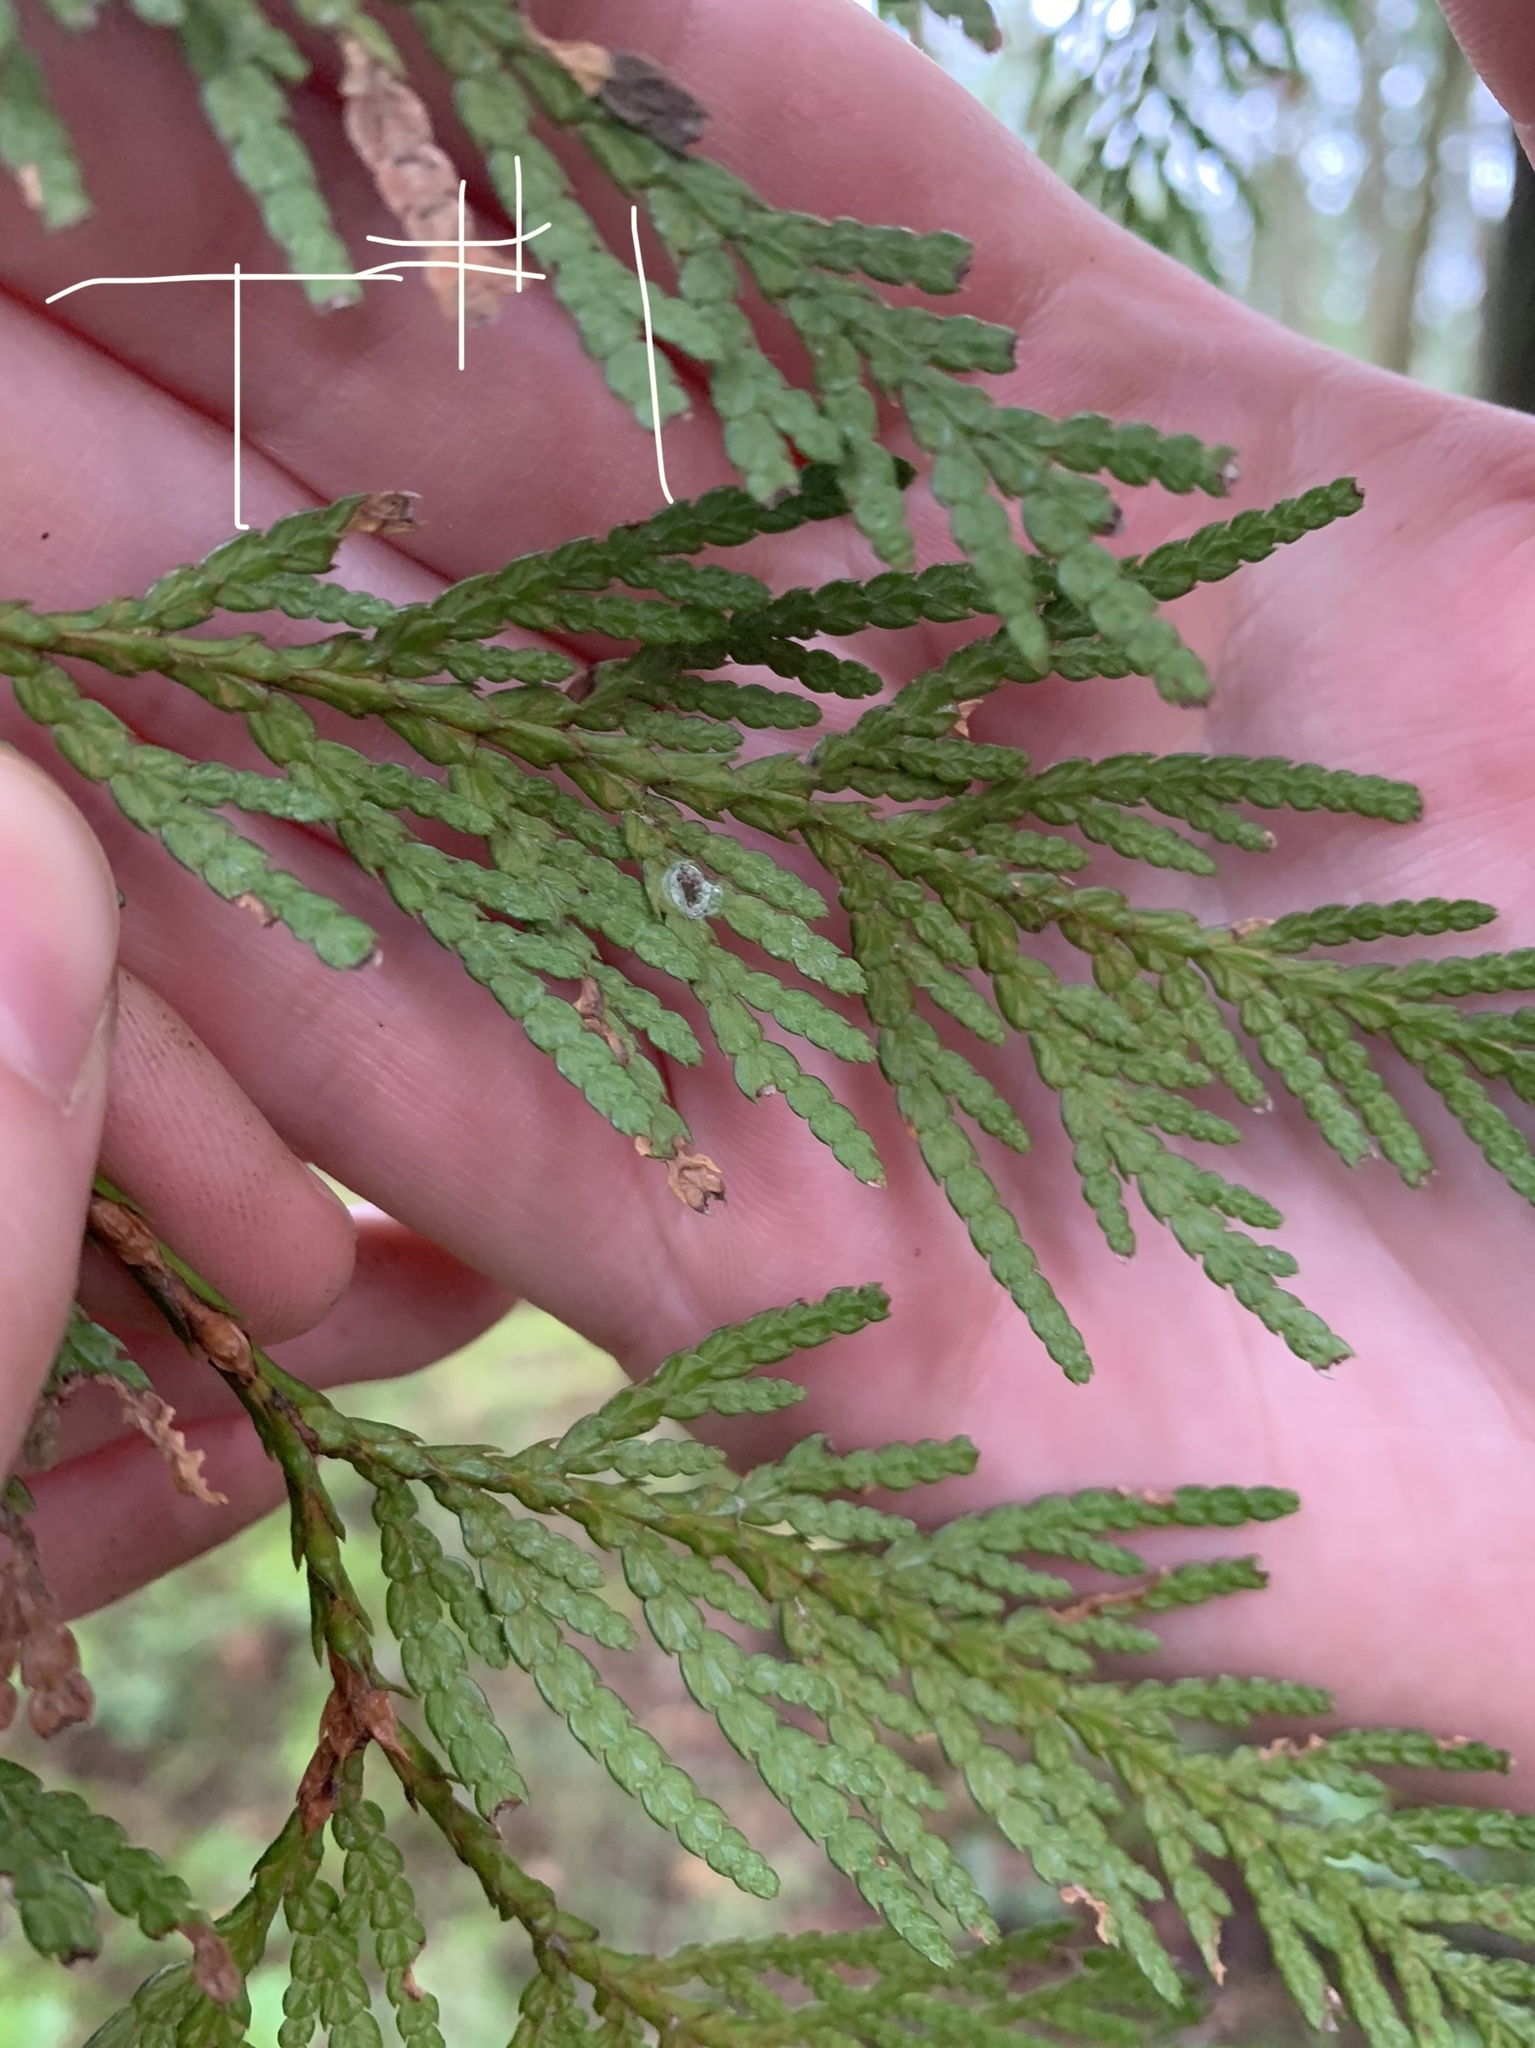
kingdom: Plantae
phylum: Tracheophyta
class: Pinopsida
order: Pinales
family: Cupressaceae
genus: Thuja
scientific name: Thuja plicata
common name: Western red-cedar
